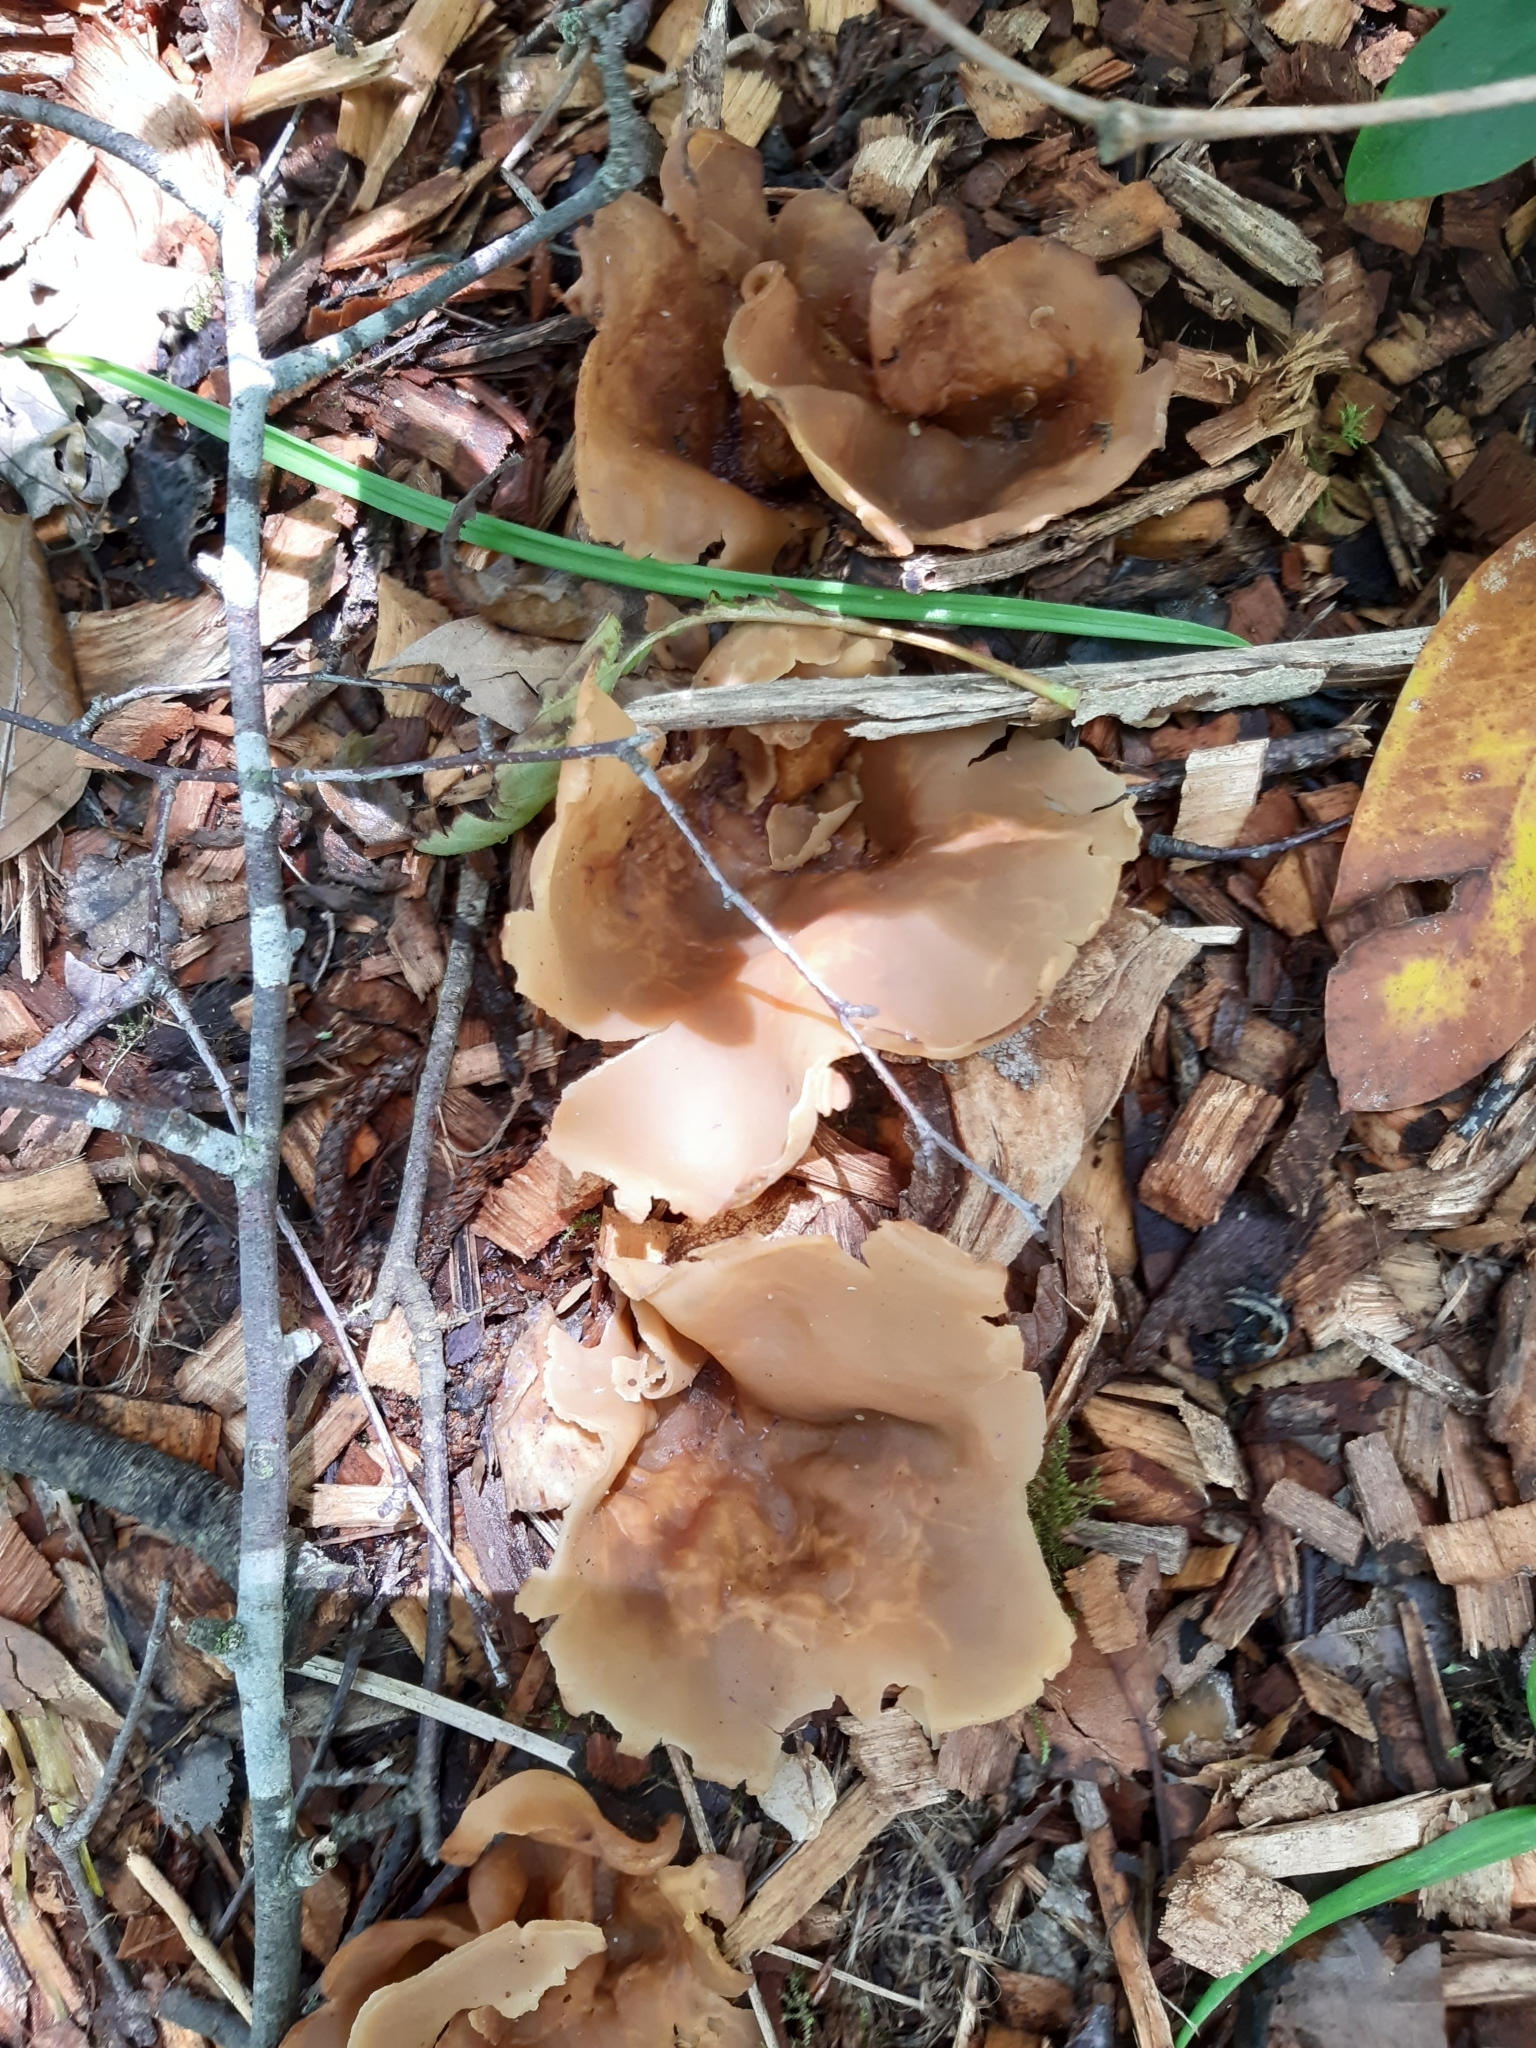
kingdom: Fungi
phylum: Ascomycota
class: Pezizomycetes
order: Pezizales
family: Pezizaceae
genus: Peziza
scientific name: Peziza varia
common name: Layered cup
